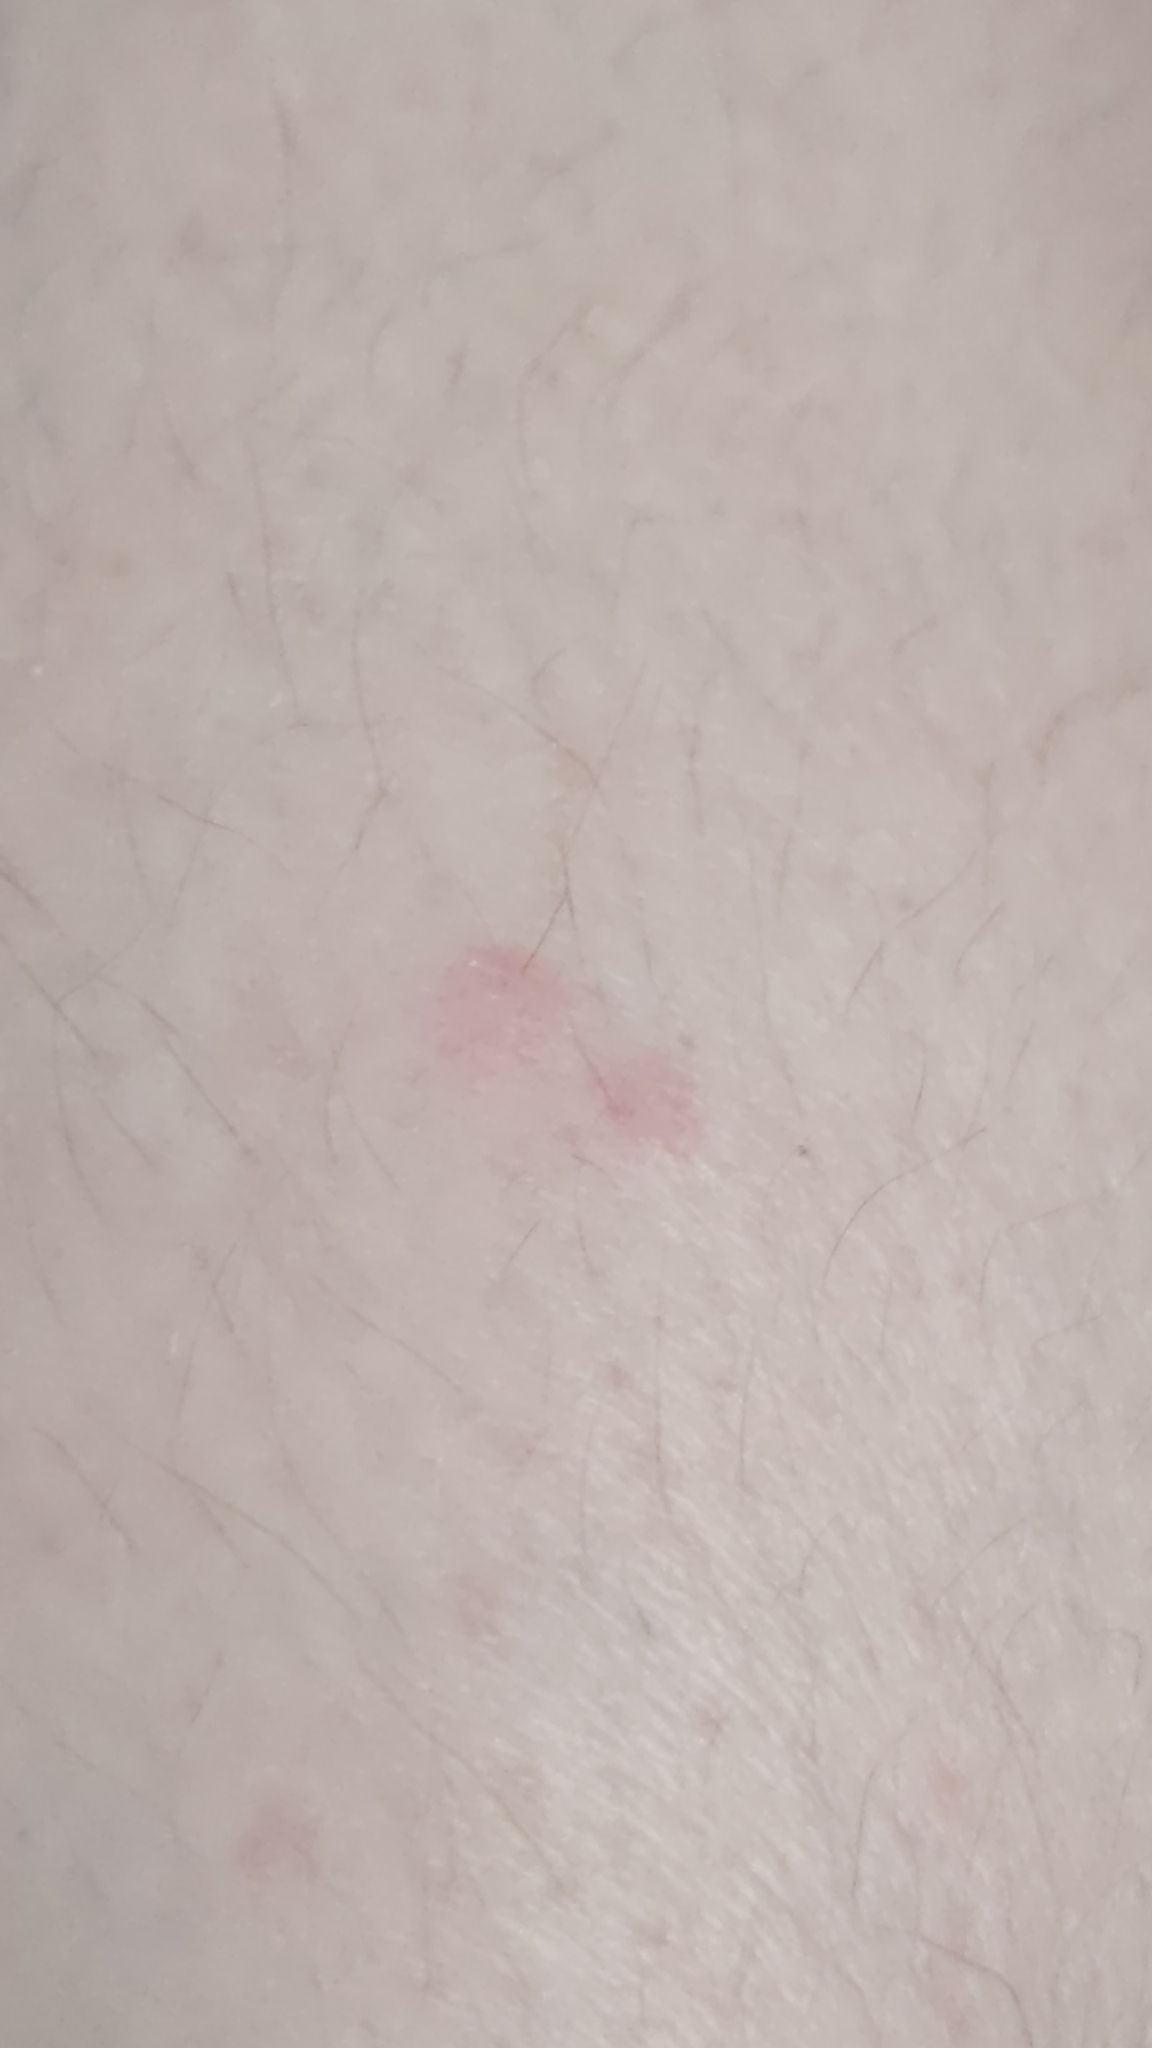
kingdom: Plantae
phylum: Tracheophyta
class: Magnoliopsida
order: Rosales
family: Cannabaceae
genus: Humulus
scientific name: Humulus scandens
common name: Japanese hop
